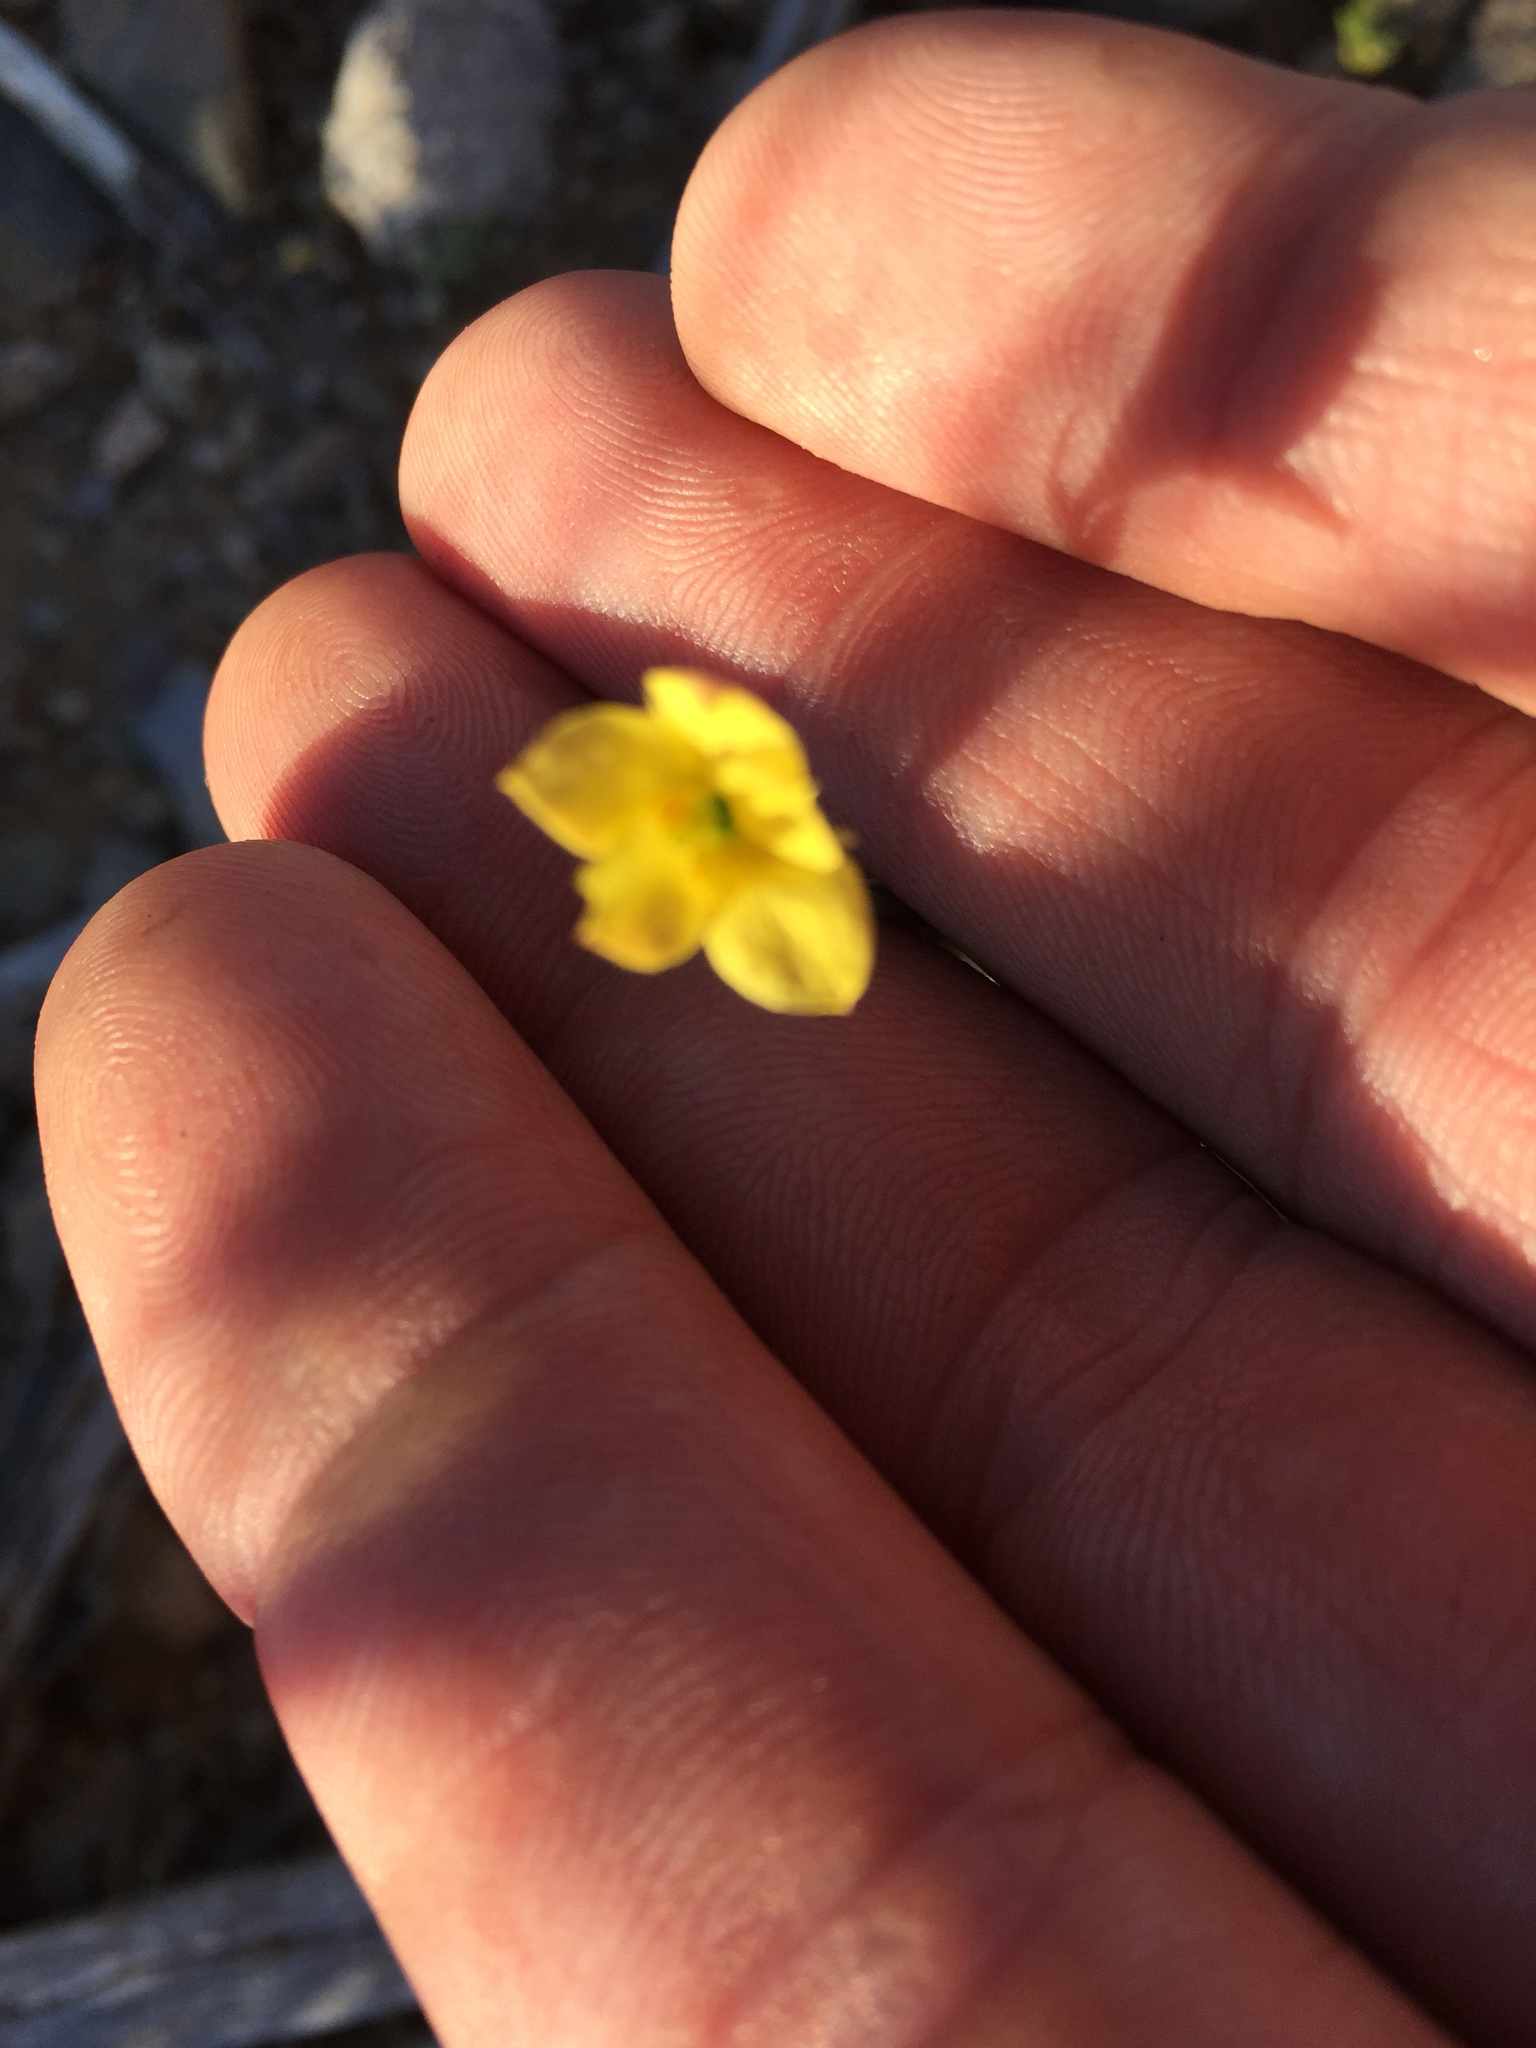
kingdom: Plantae
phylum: Tracheophyta
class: Magnoliopsida
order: Lamiales
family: Oleaceae
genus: Menodora
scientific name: Menodora scabra
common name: Rough menodora
